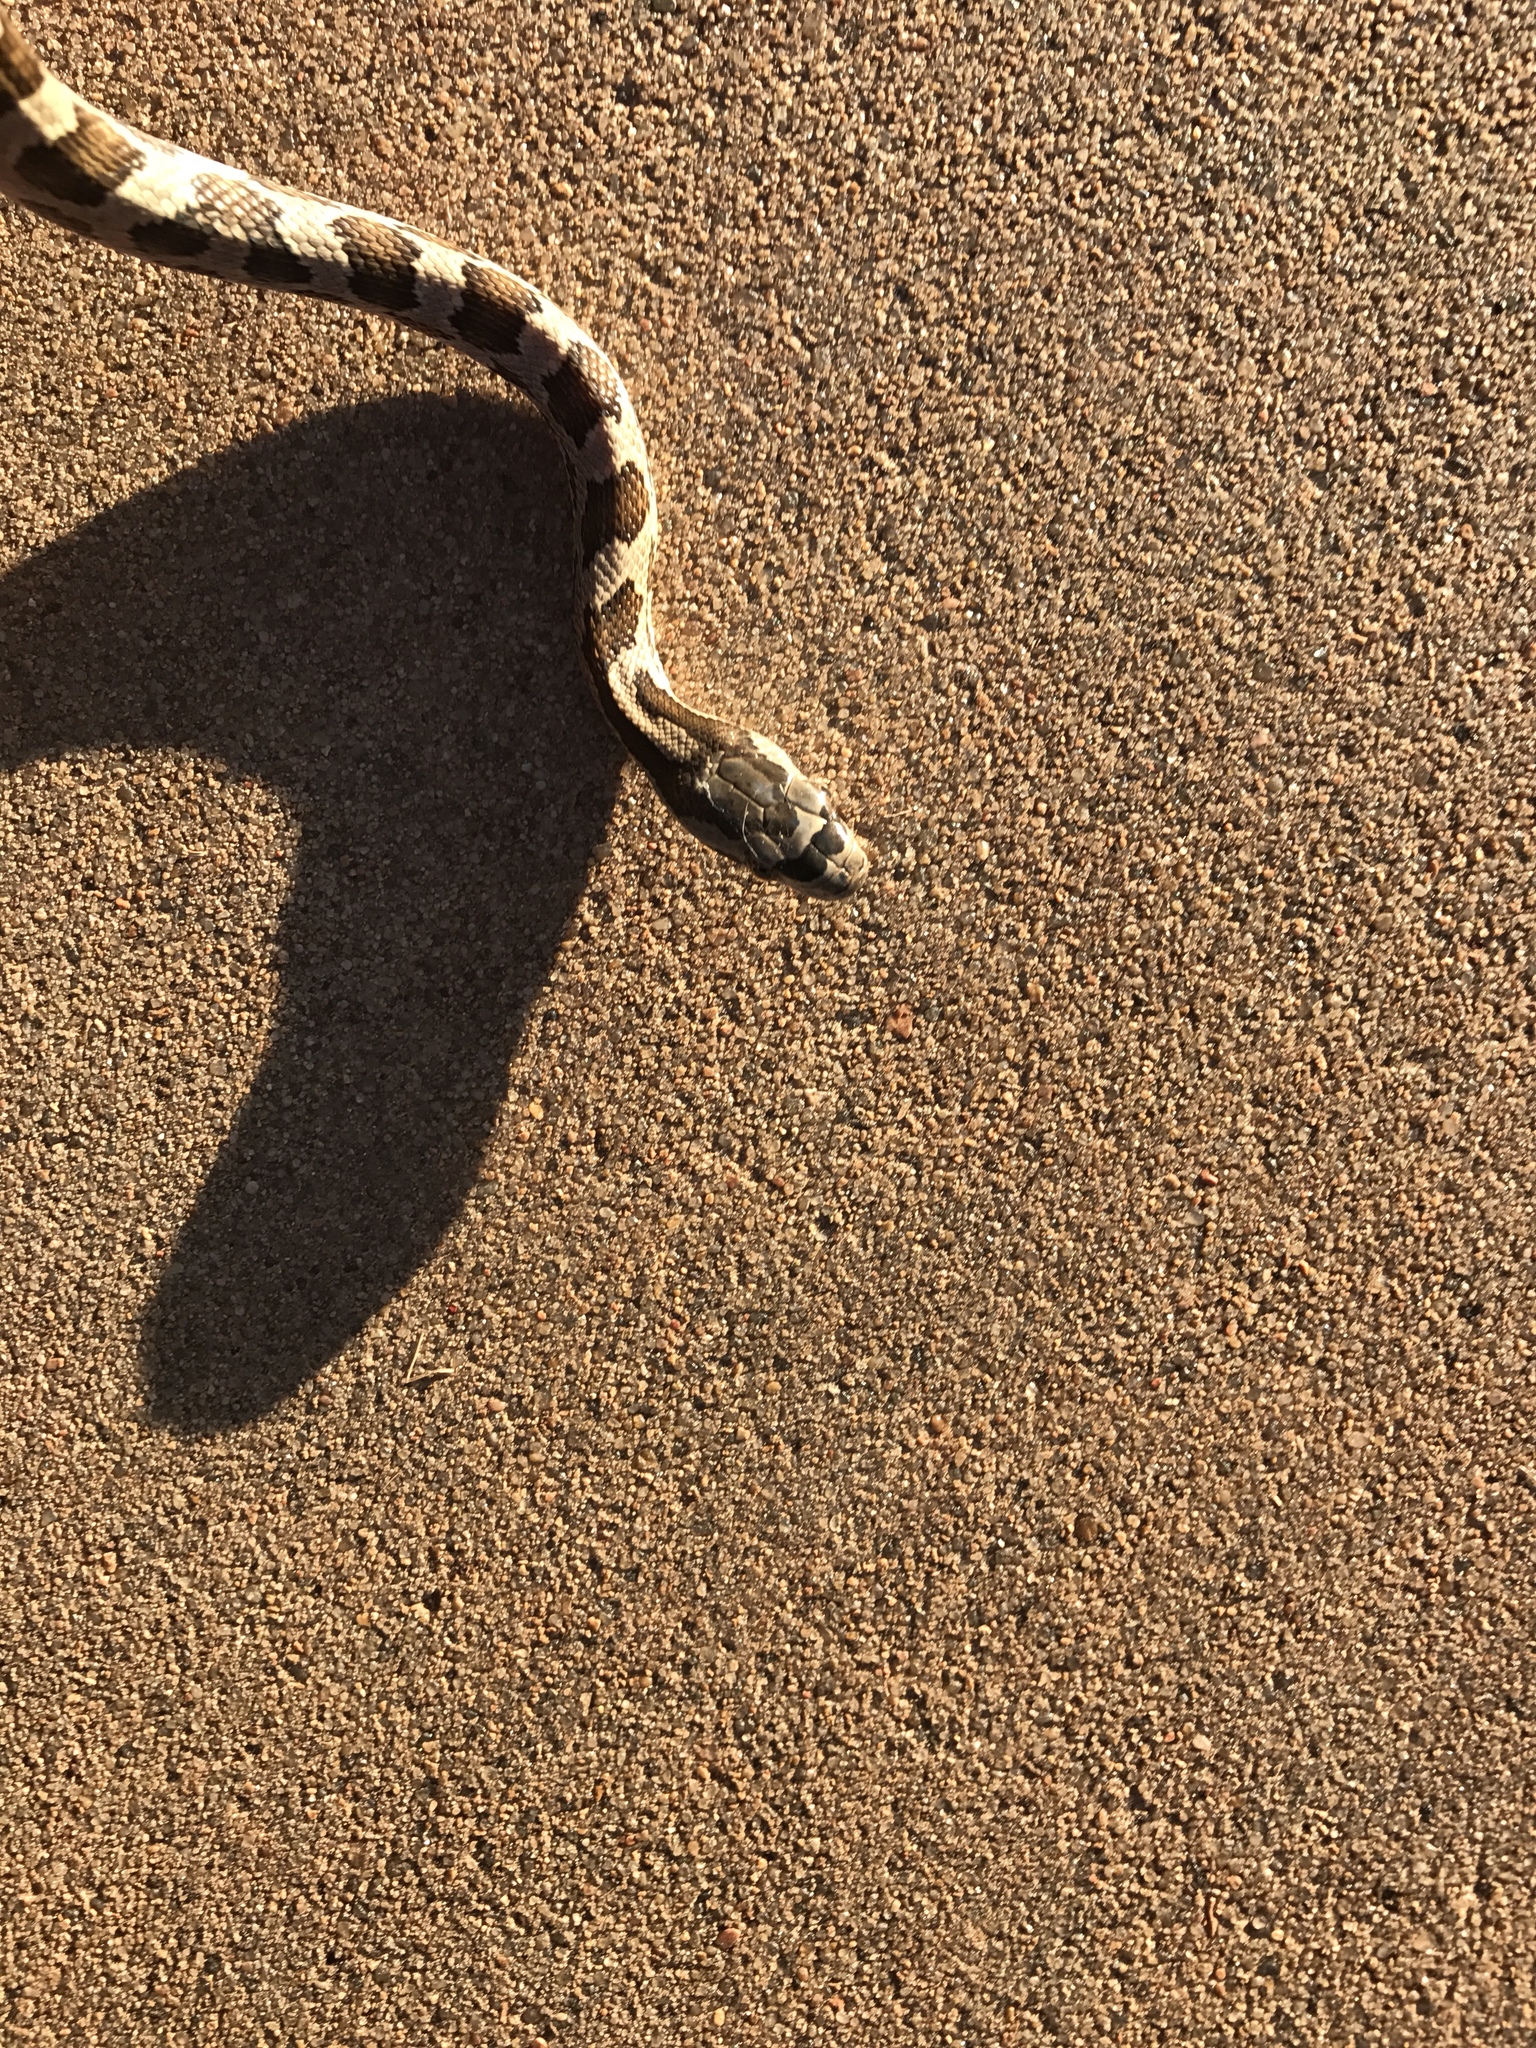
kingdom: Animalia
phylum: Chordata
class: Squamata
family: Colubridae
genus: Pantherophis
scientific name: Pantherophis obsoletus
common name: Black rat snake
